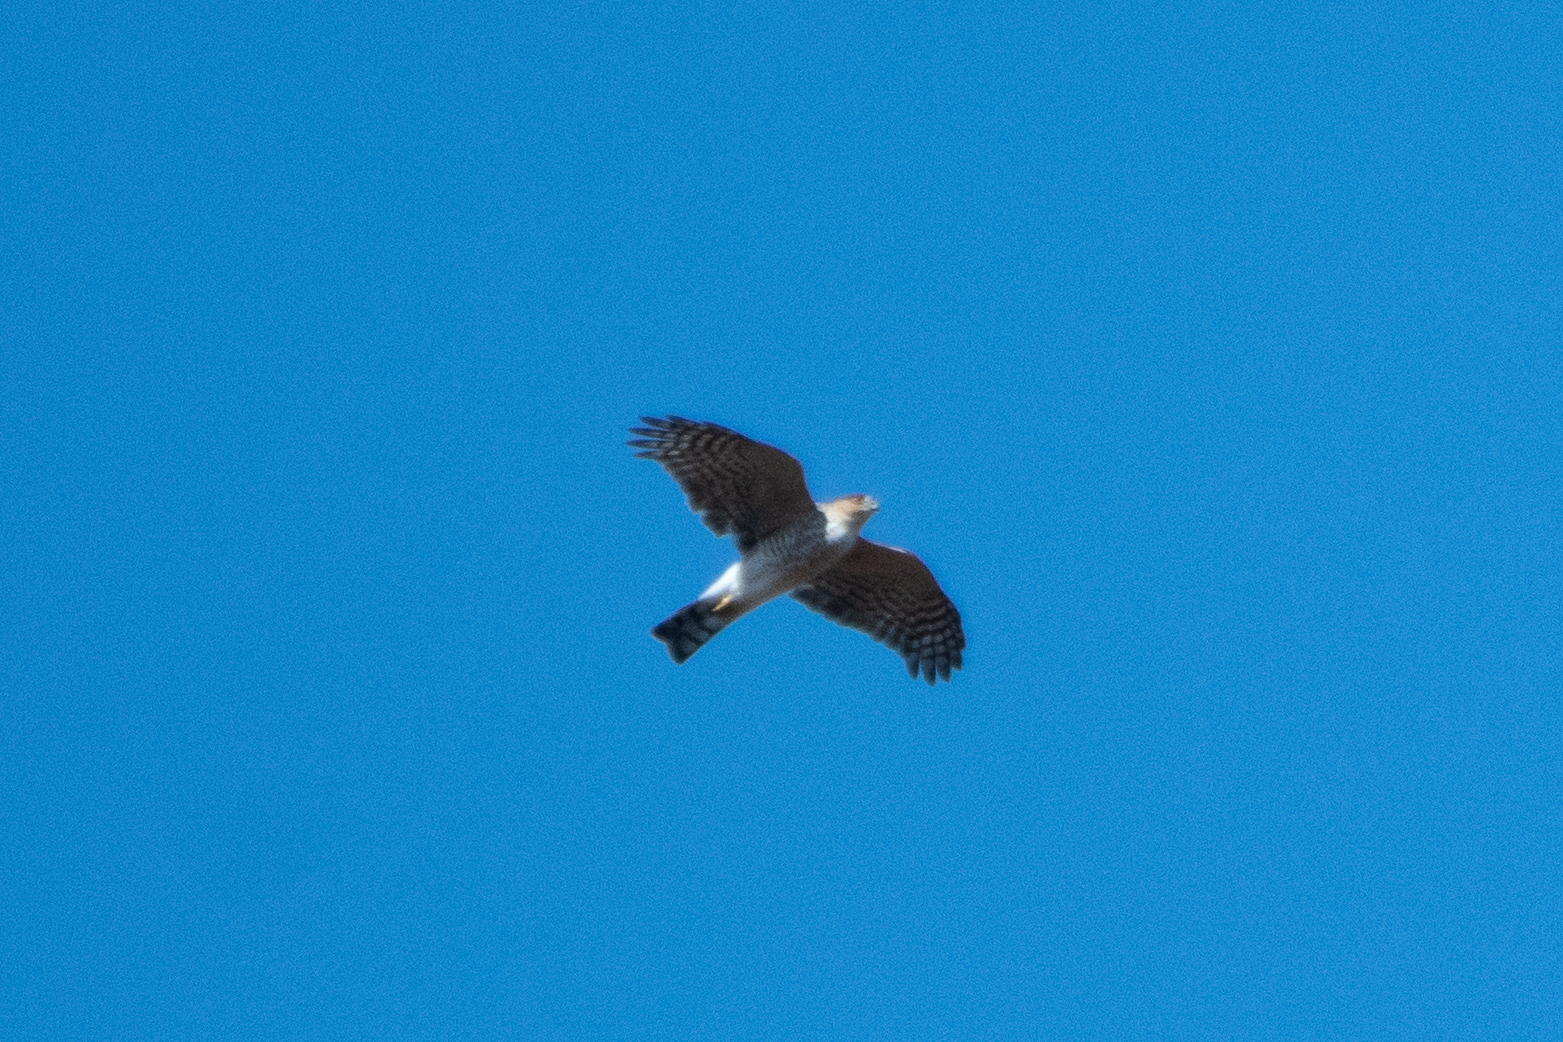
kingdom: Animalia
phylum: Chordata
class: Aves
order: Accipitriformes
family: Accipitridae
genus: Accipiter
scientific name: Accipiter striatus
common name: Sharp-shinned hawk
